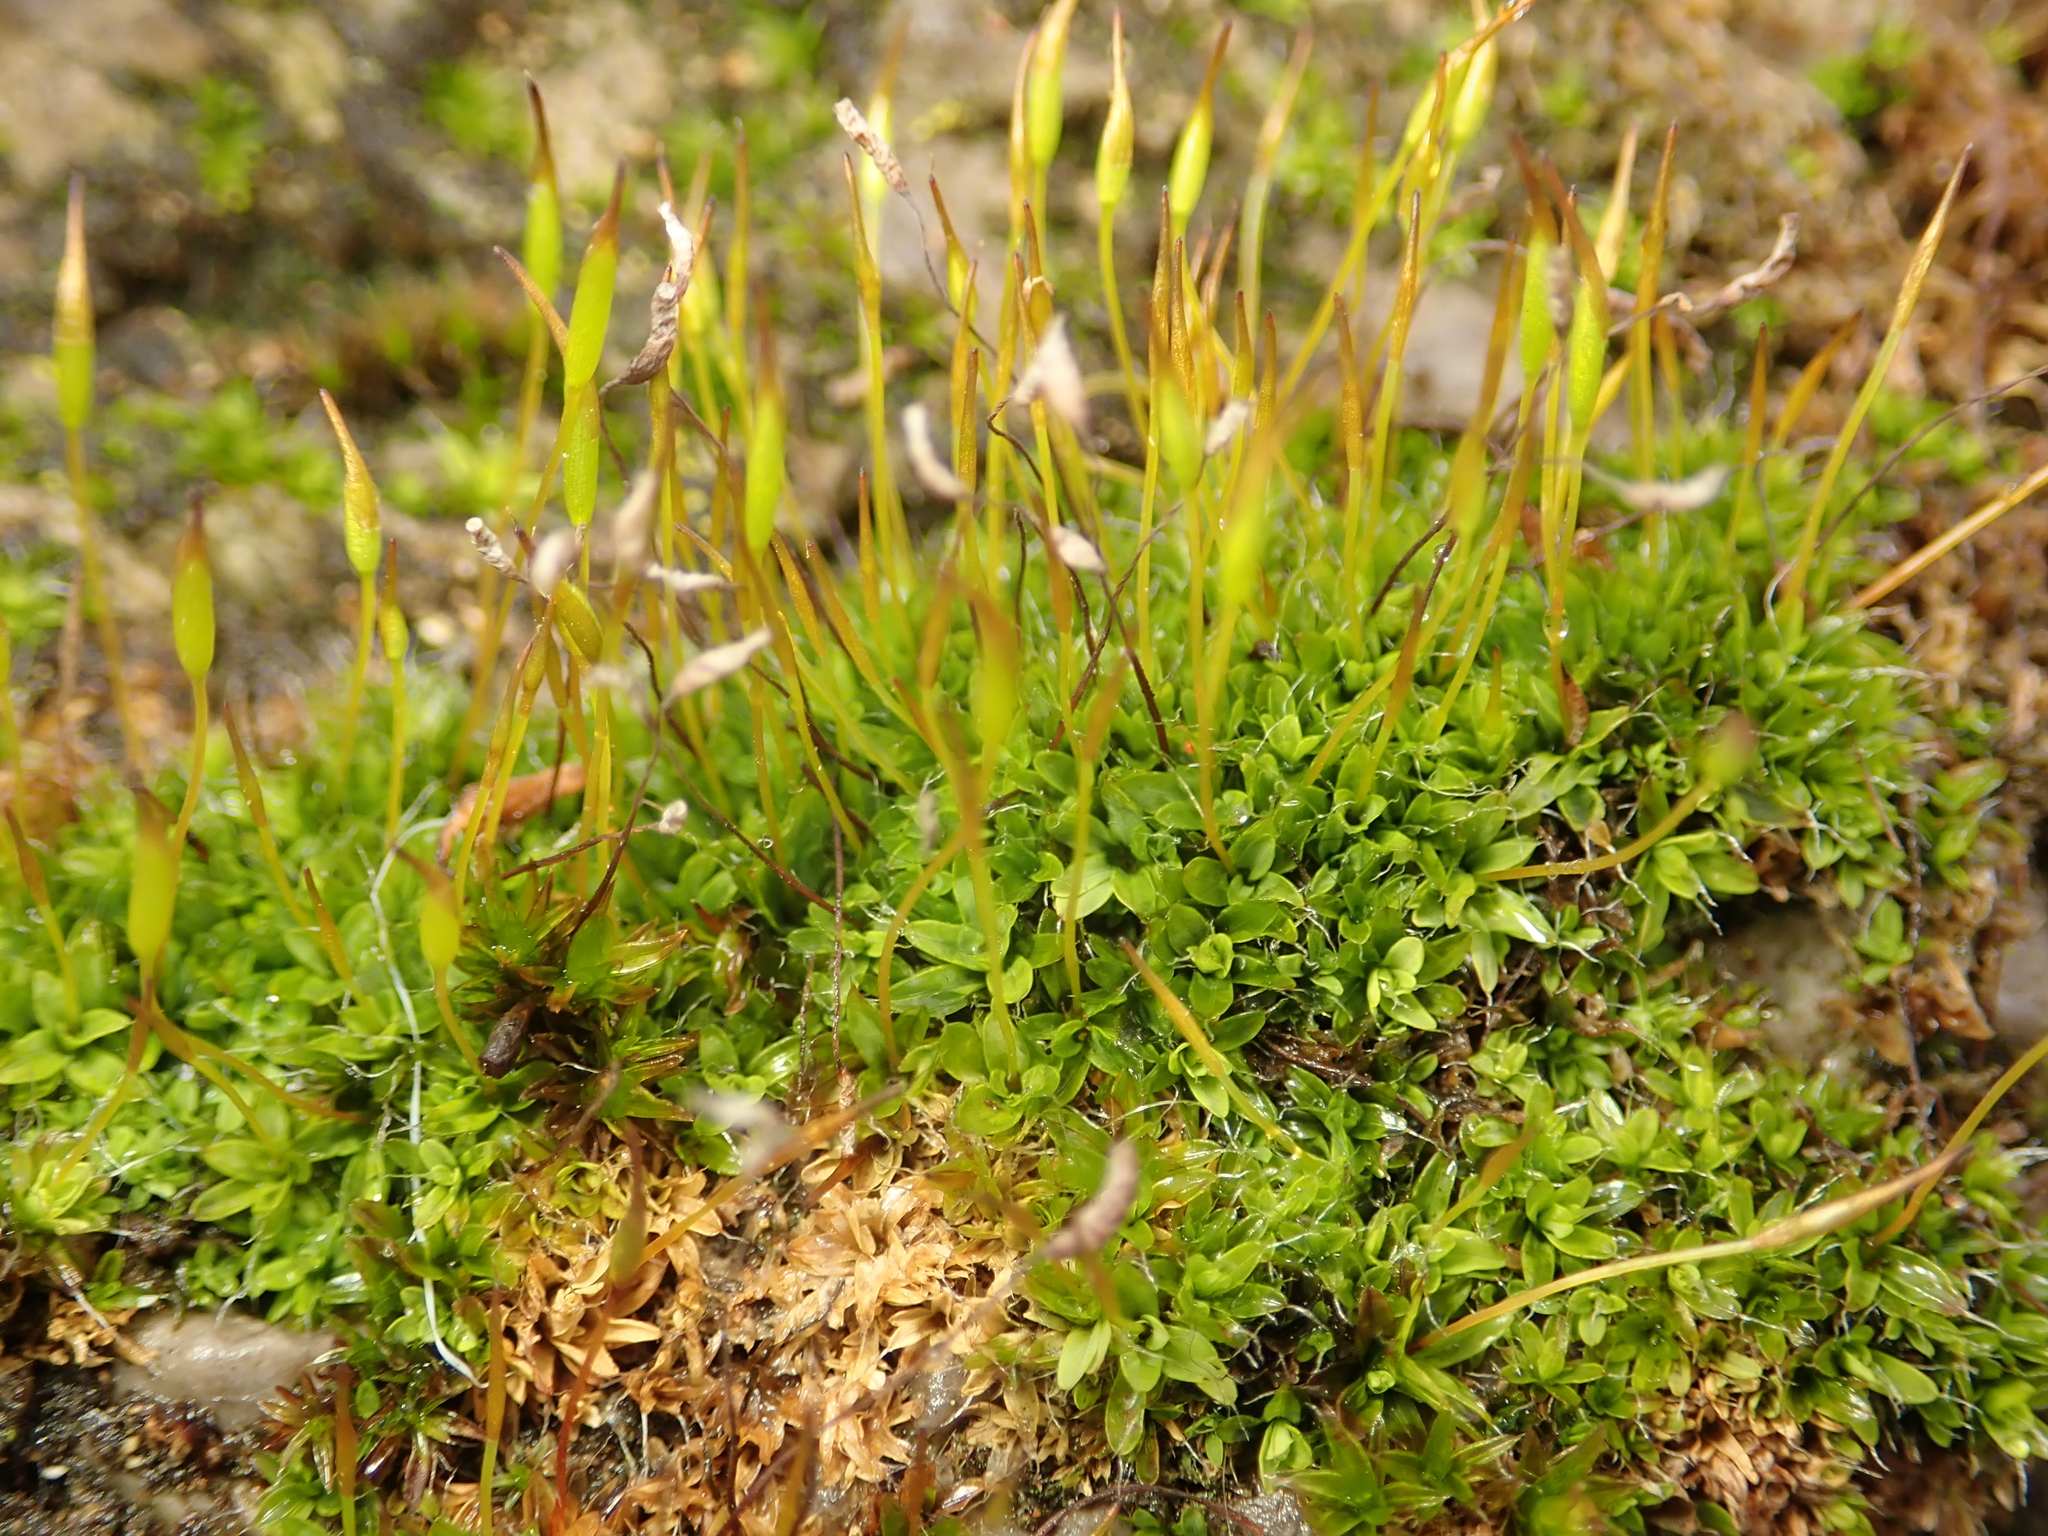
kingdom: Plantae
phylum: Bryophyta
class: Bryopsida
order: Pottiales
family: Pottiaceae
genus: Tortula
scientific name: Tortula muralis
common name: Wall screw-moss
